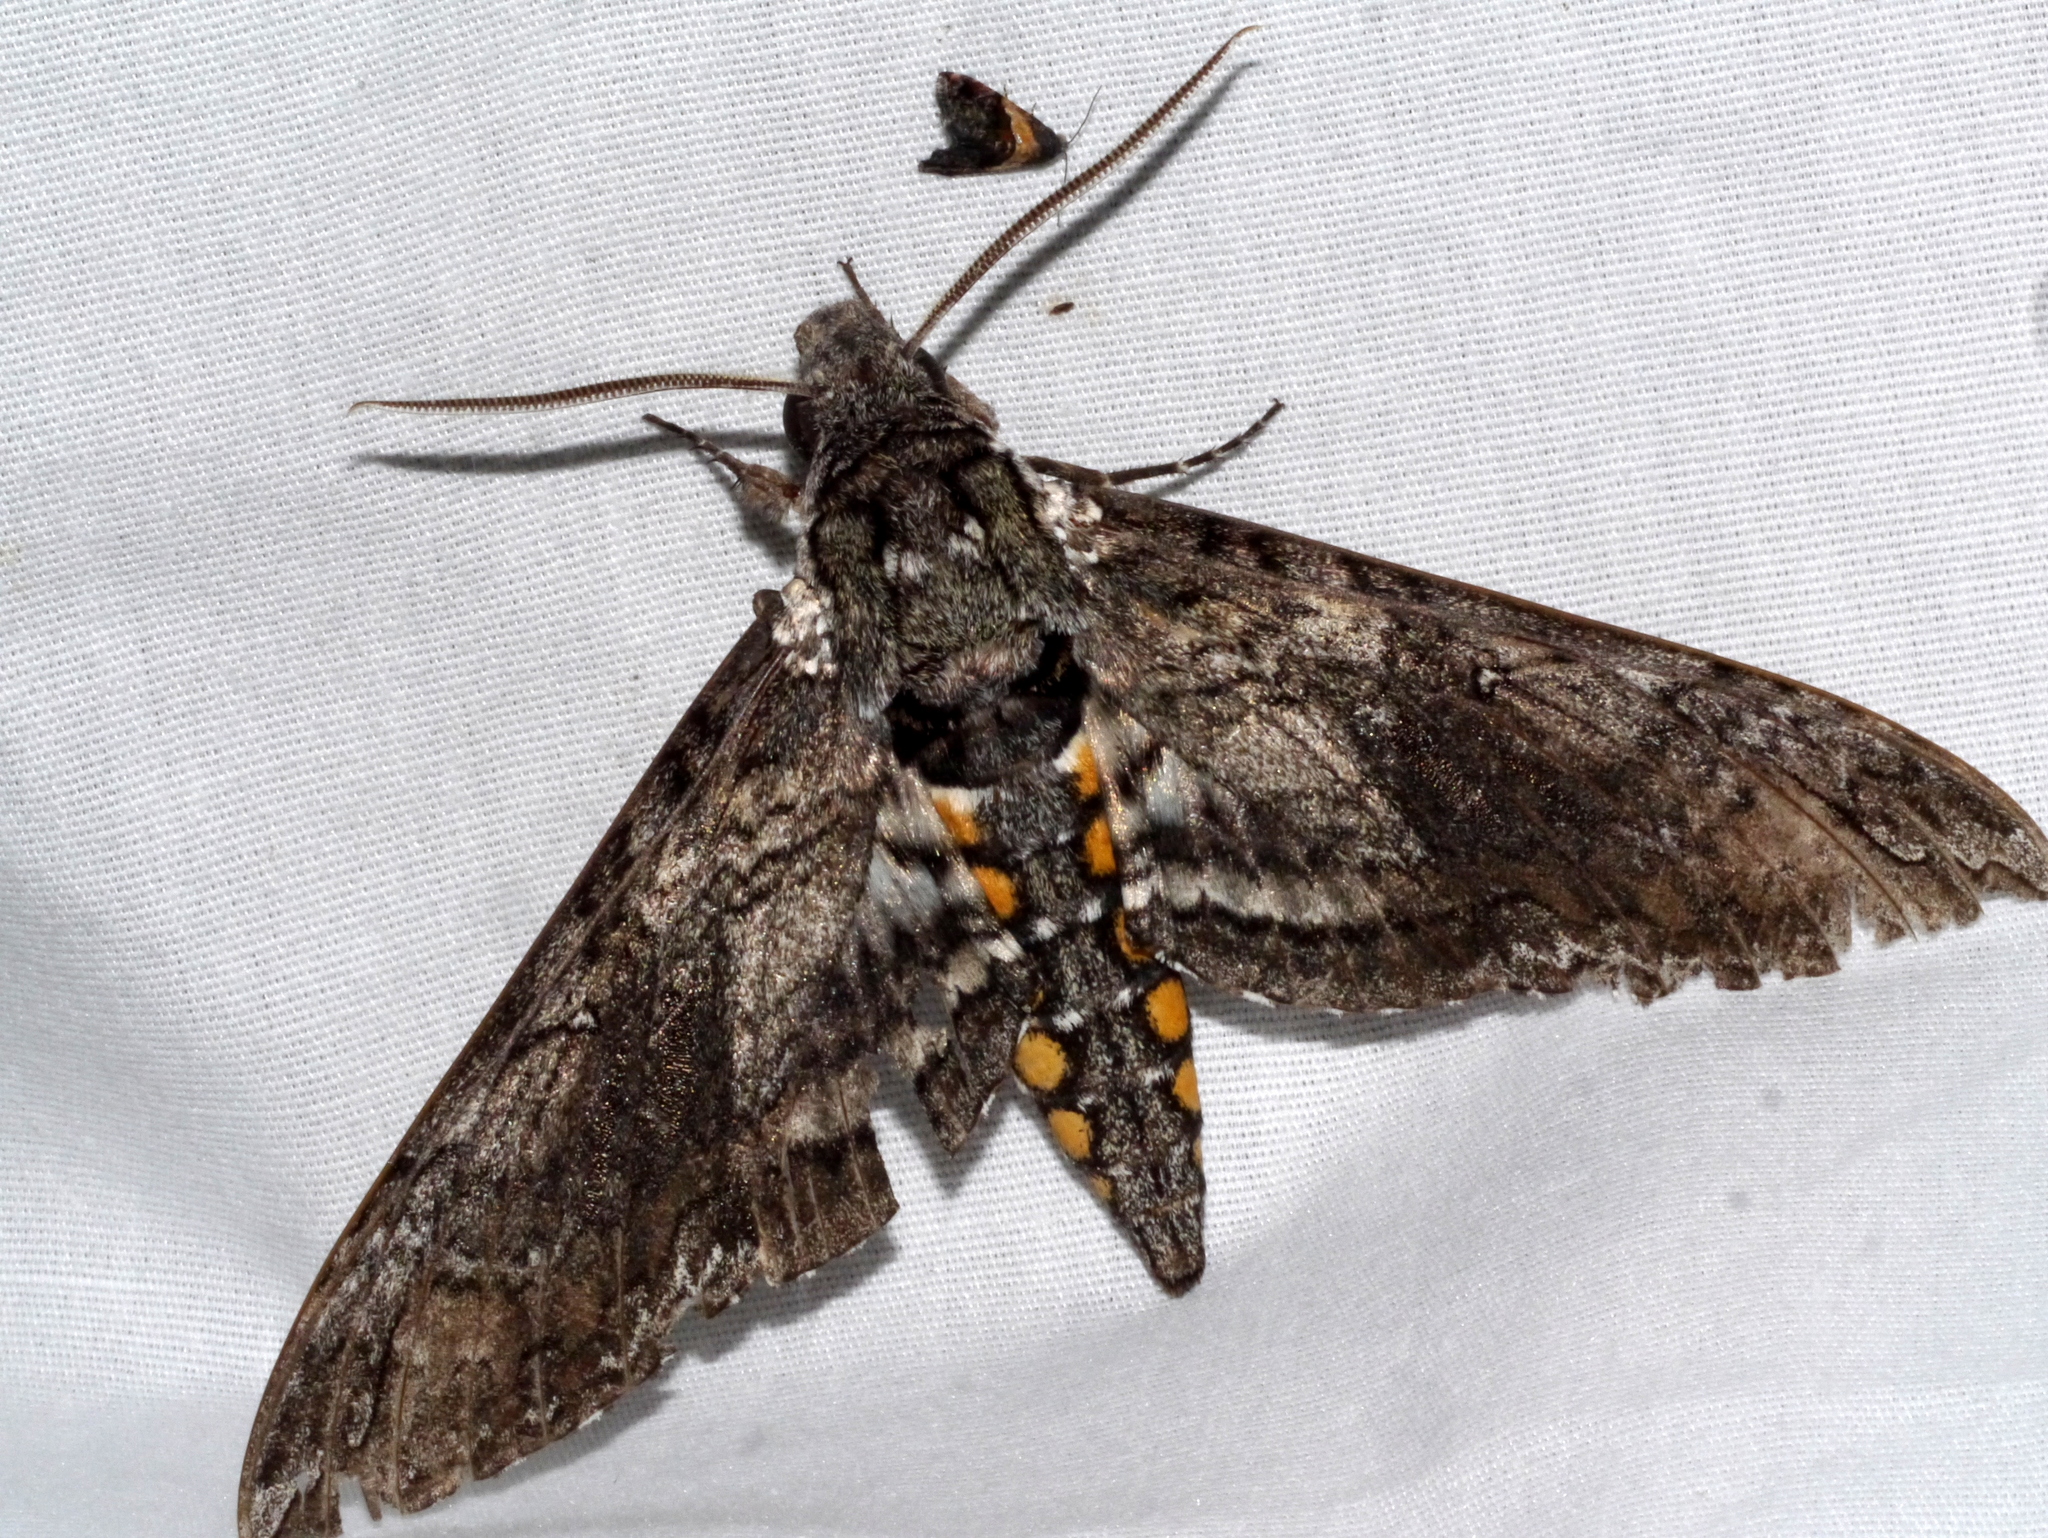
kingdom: Animalia
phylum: Arthropoda
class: Insecta
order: Lepidoptera
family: Sphingidae
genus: Manduca
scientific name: Manduca sexta
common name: Carolina sphinx
